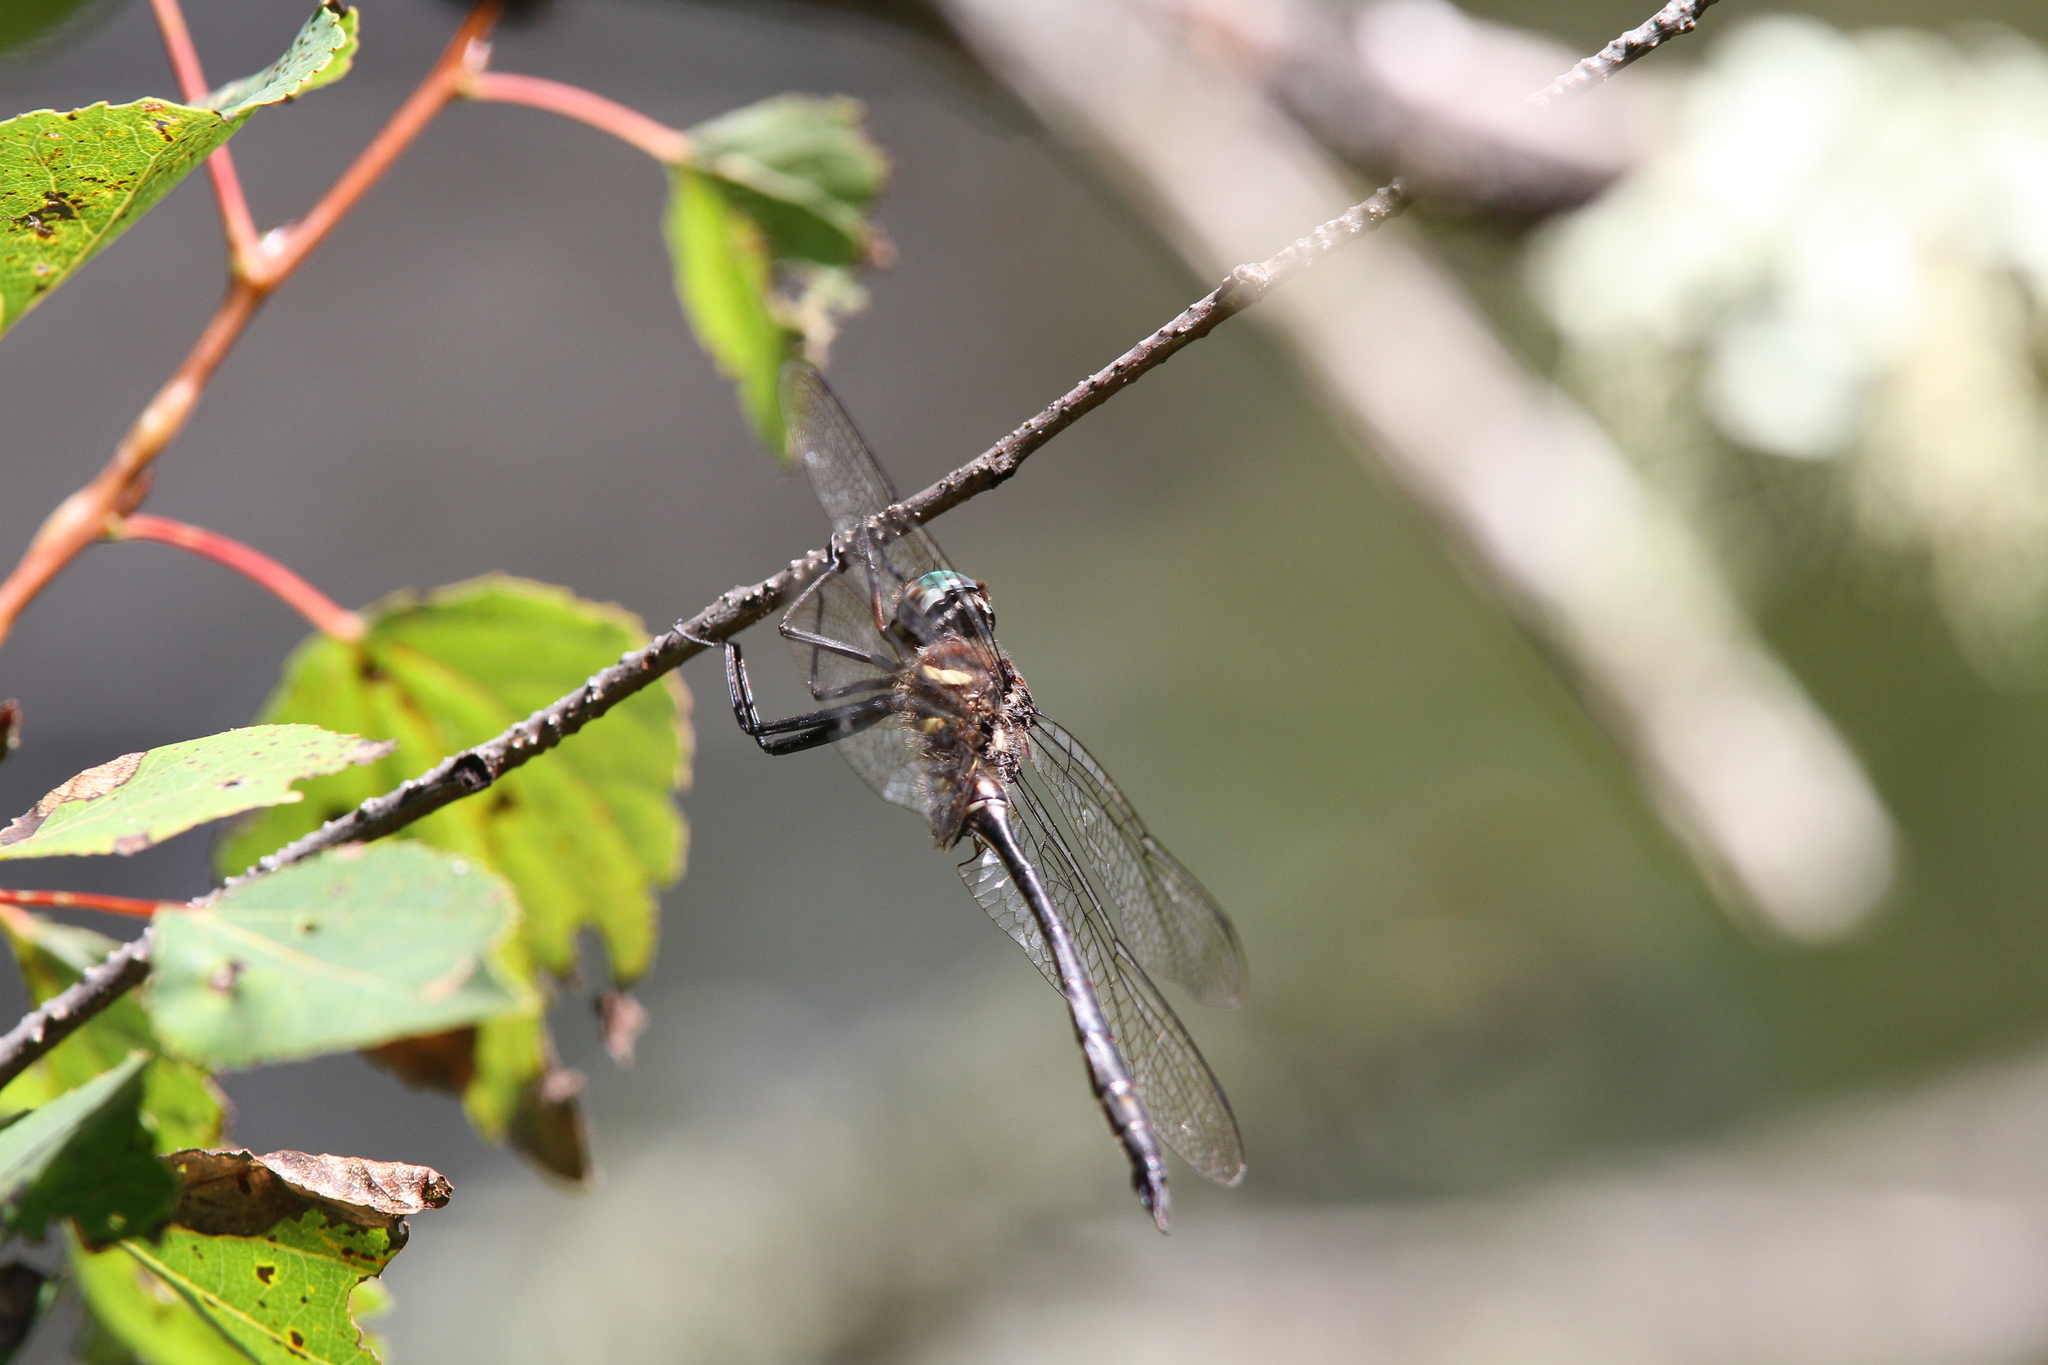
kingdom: Animalia
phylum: Arthropoda
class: Insecta
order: Odonata
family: Corduliidae
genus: Somatochlora
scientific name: Somatochlora elongata
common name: Ski-tipped emerald
